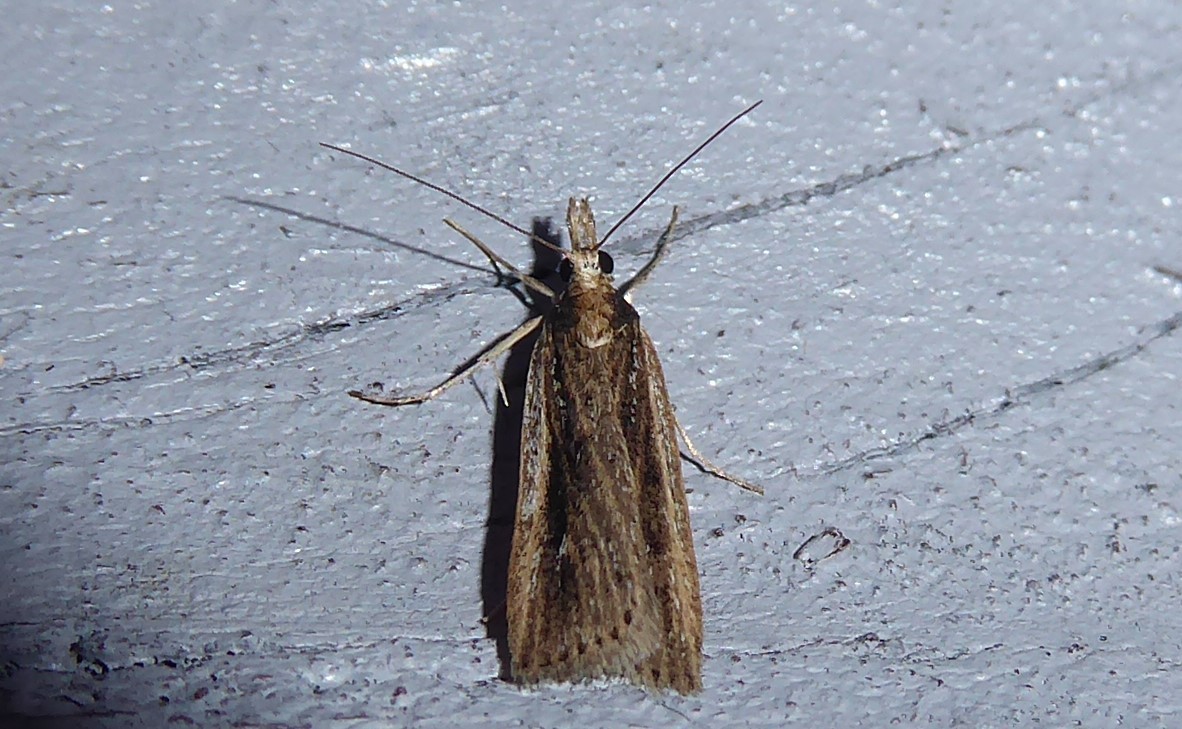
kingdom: Animalia
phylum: Arthropoda
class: Insecta
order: Lepidoptera
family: Crambidae
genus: Eudonia
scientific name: Eudonia sabulosella
